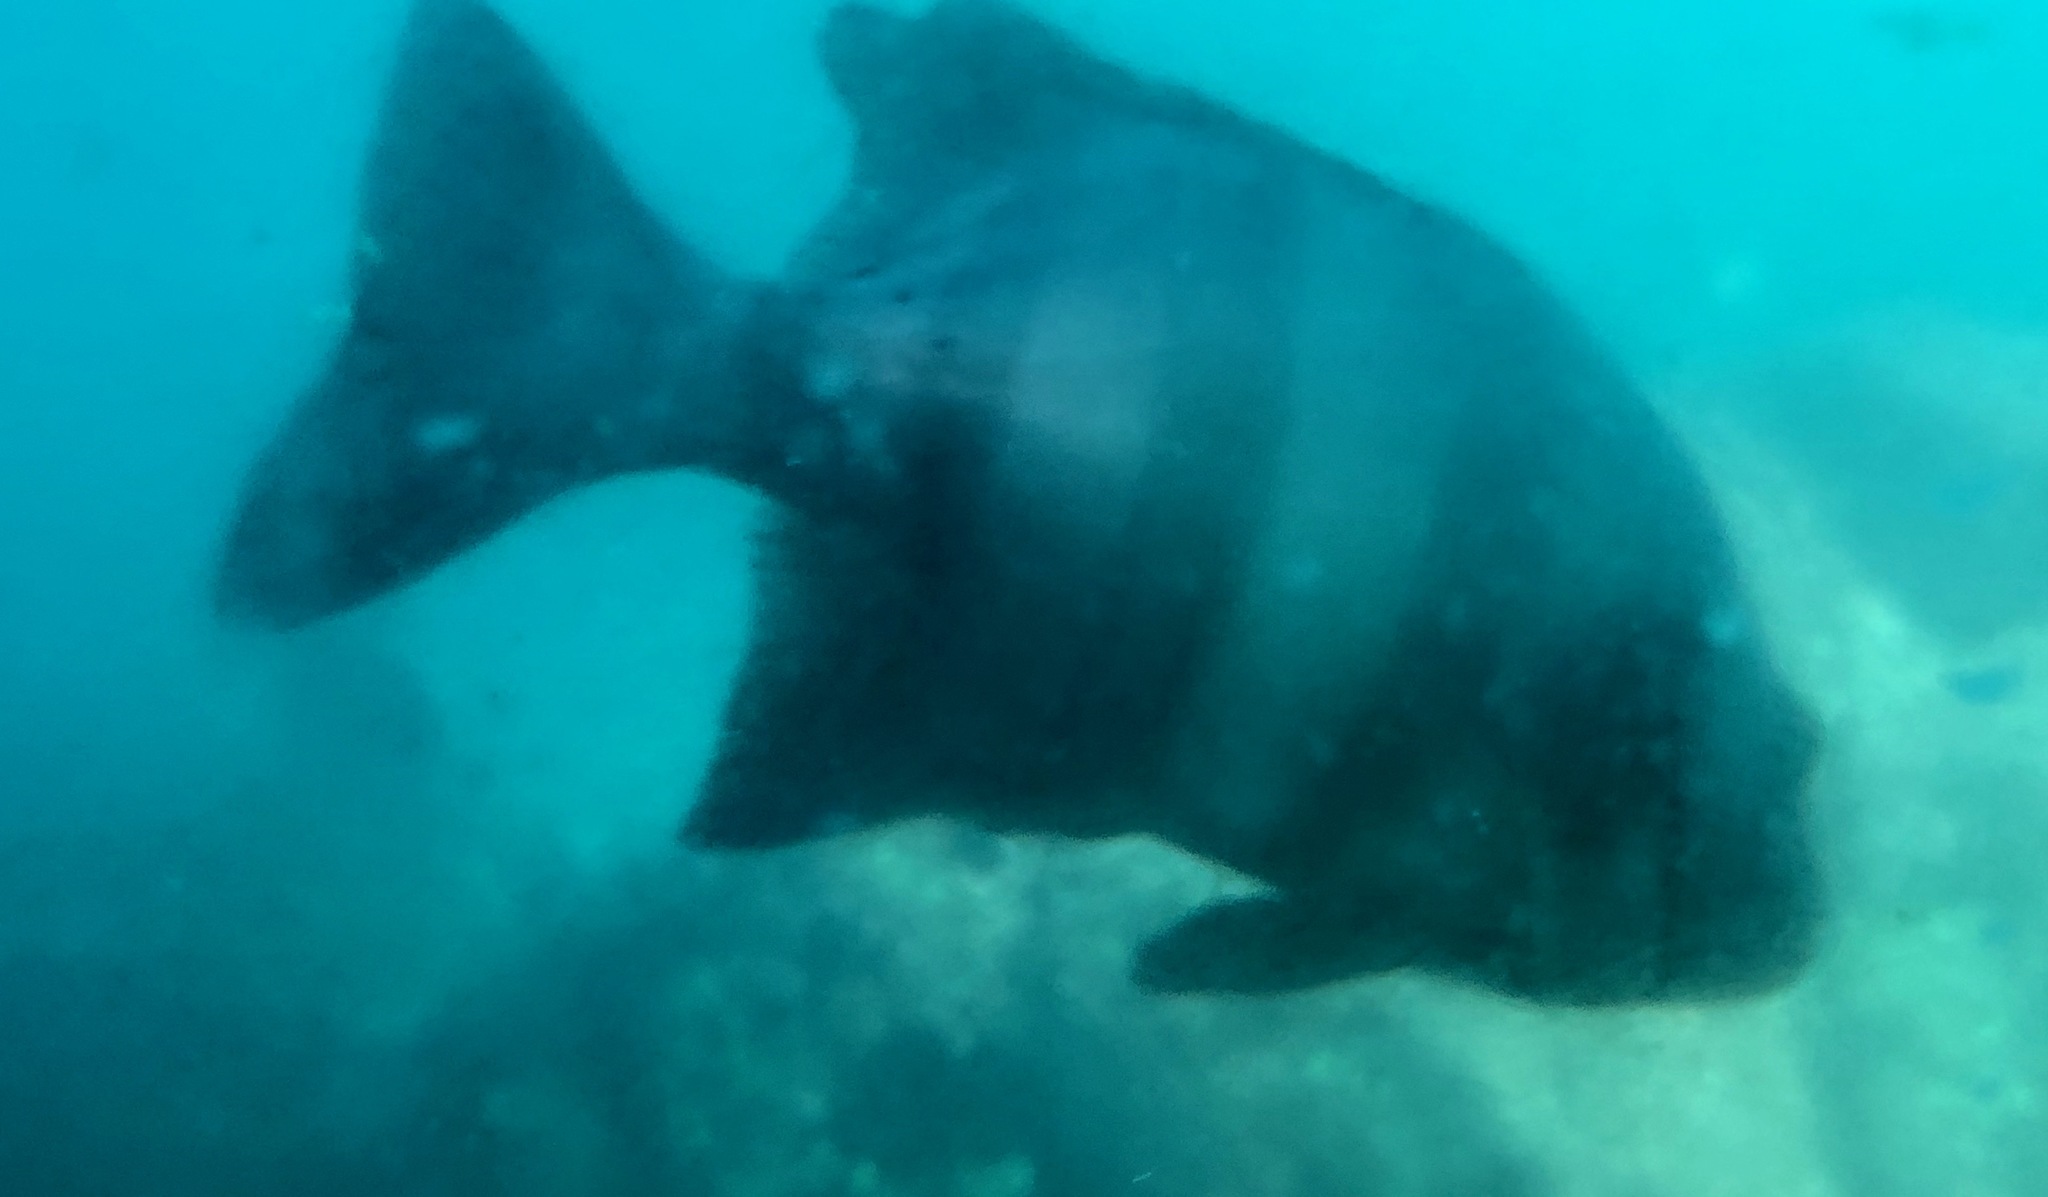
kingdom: Animalia
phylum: Chordata
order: Perciformes
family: Oplegnathidae
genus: Oplegnathus
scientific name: Oplegnathus fasciatus
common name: Barred knifejaw
